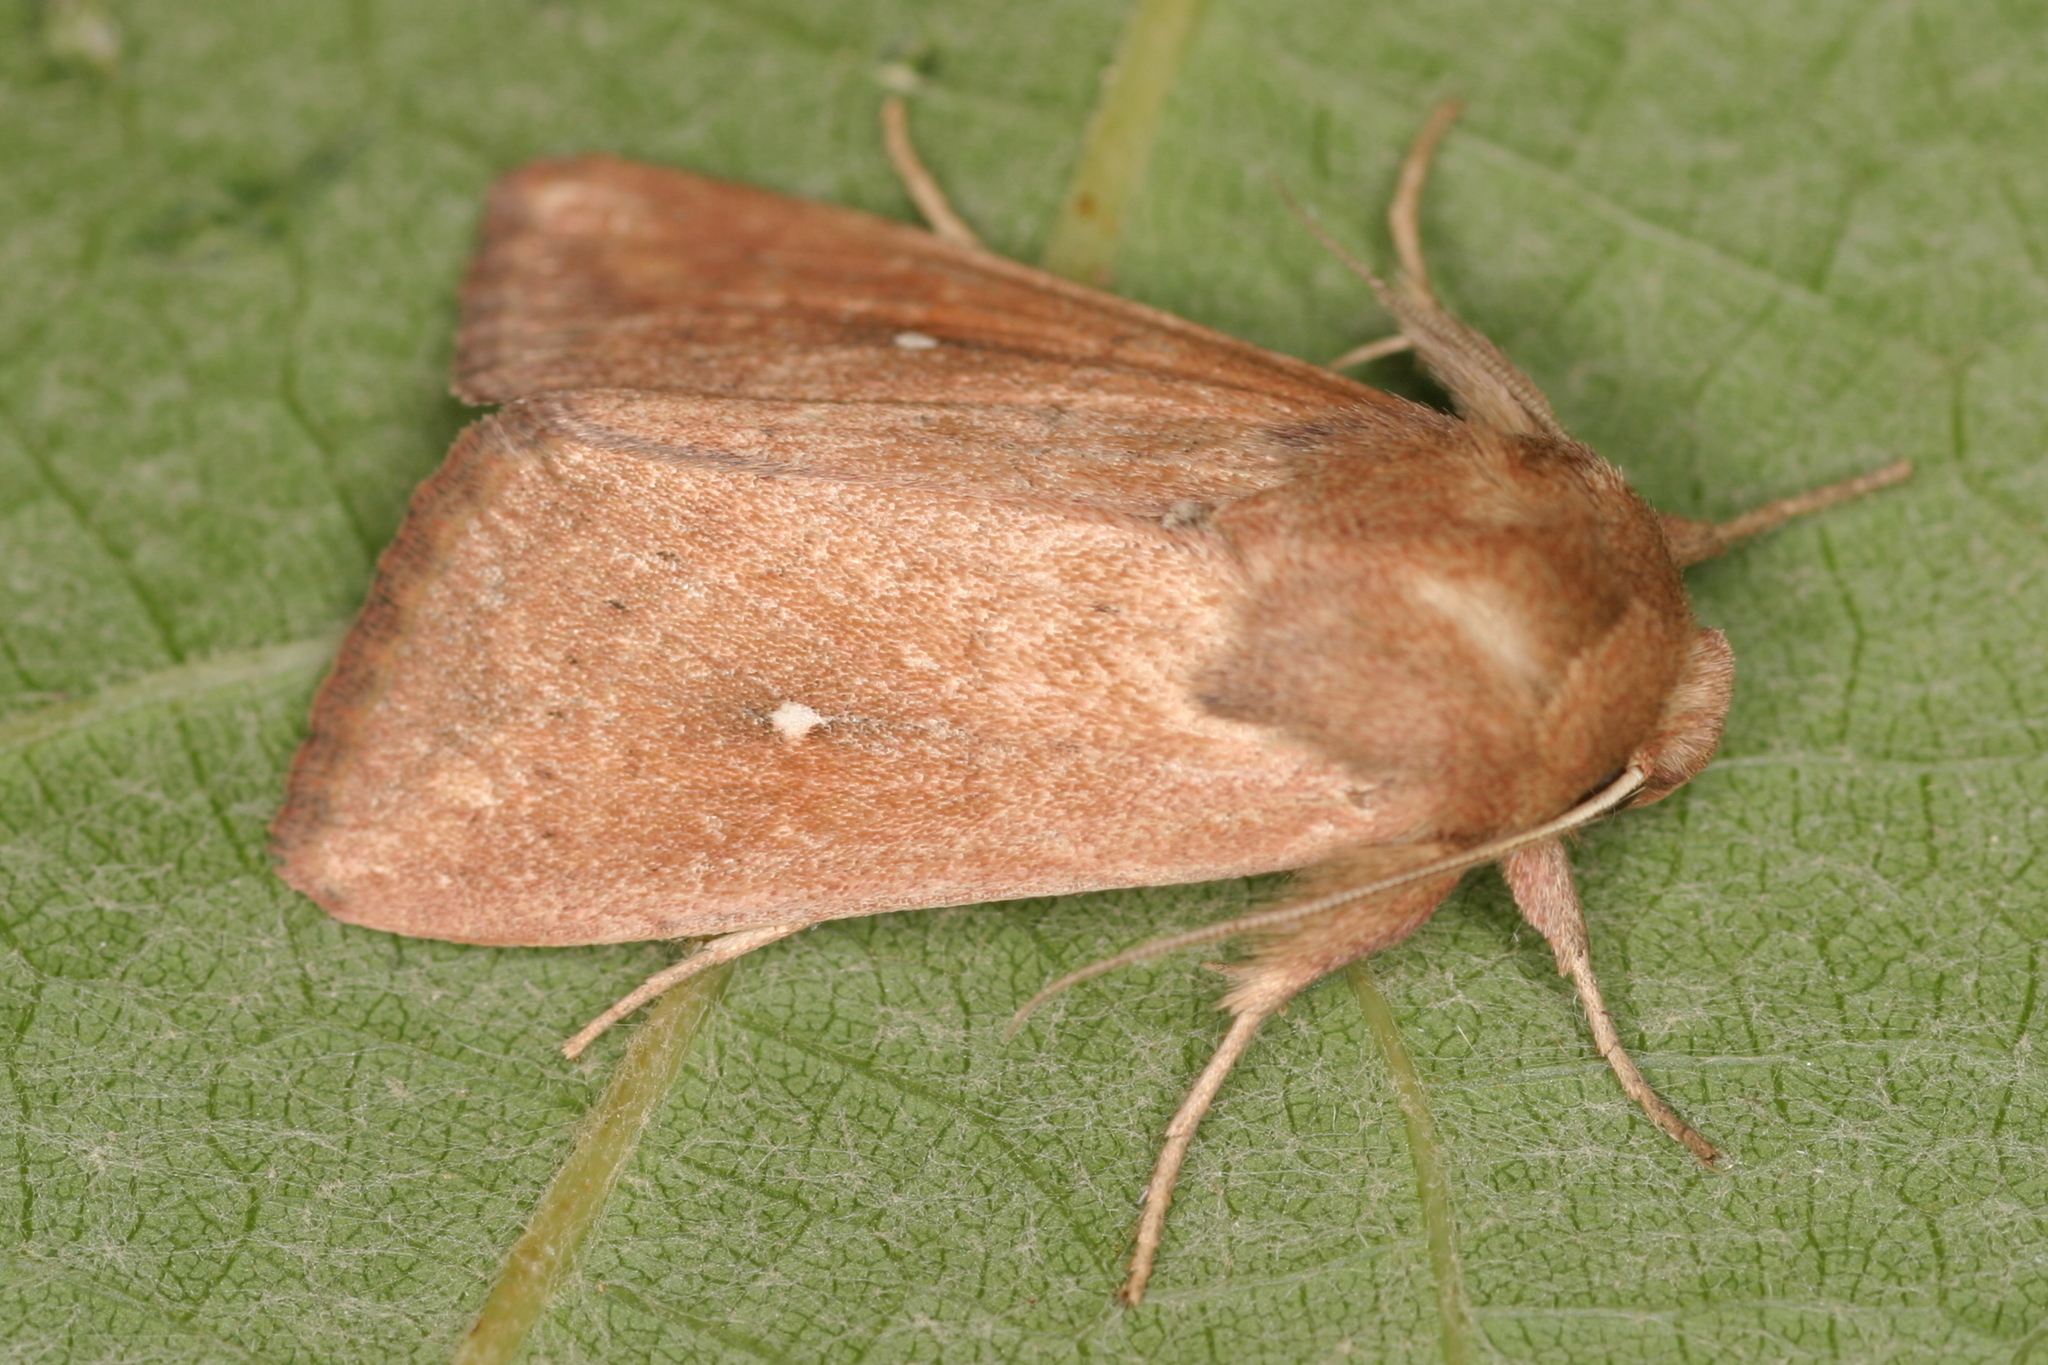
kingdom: Animalia
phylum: Arthropoda
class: Insecta
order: Lepidoptera
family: Noctuidae
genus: Mythimna
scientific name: Mythimna albipuncta
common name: White-point
